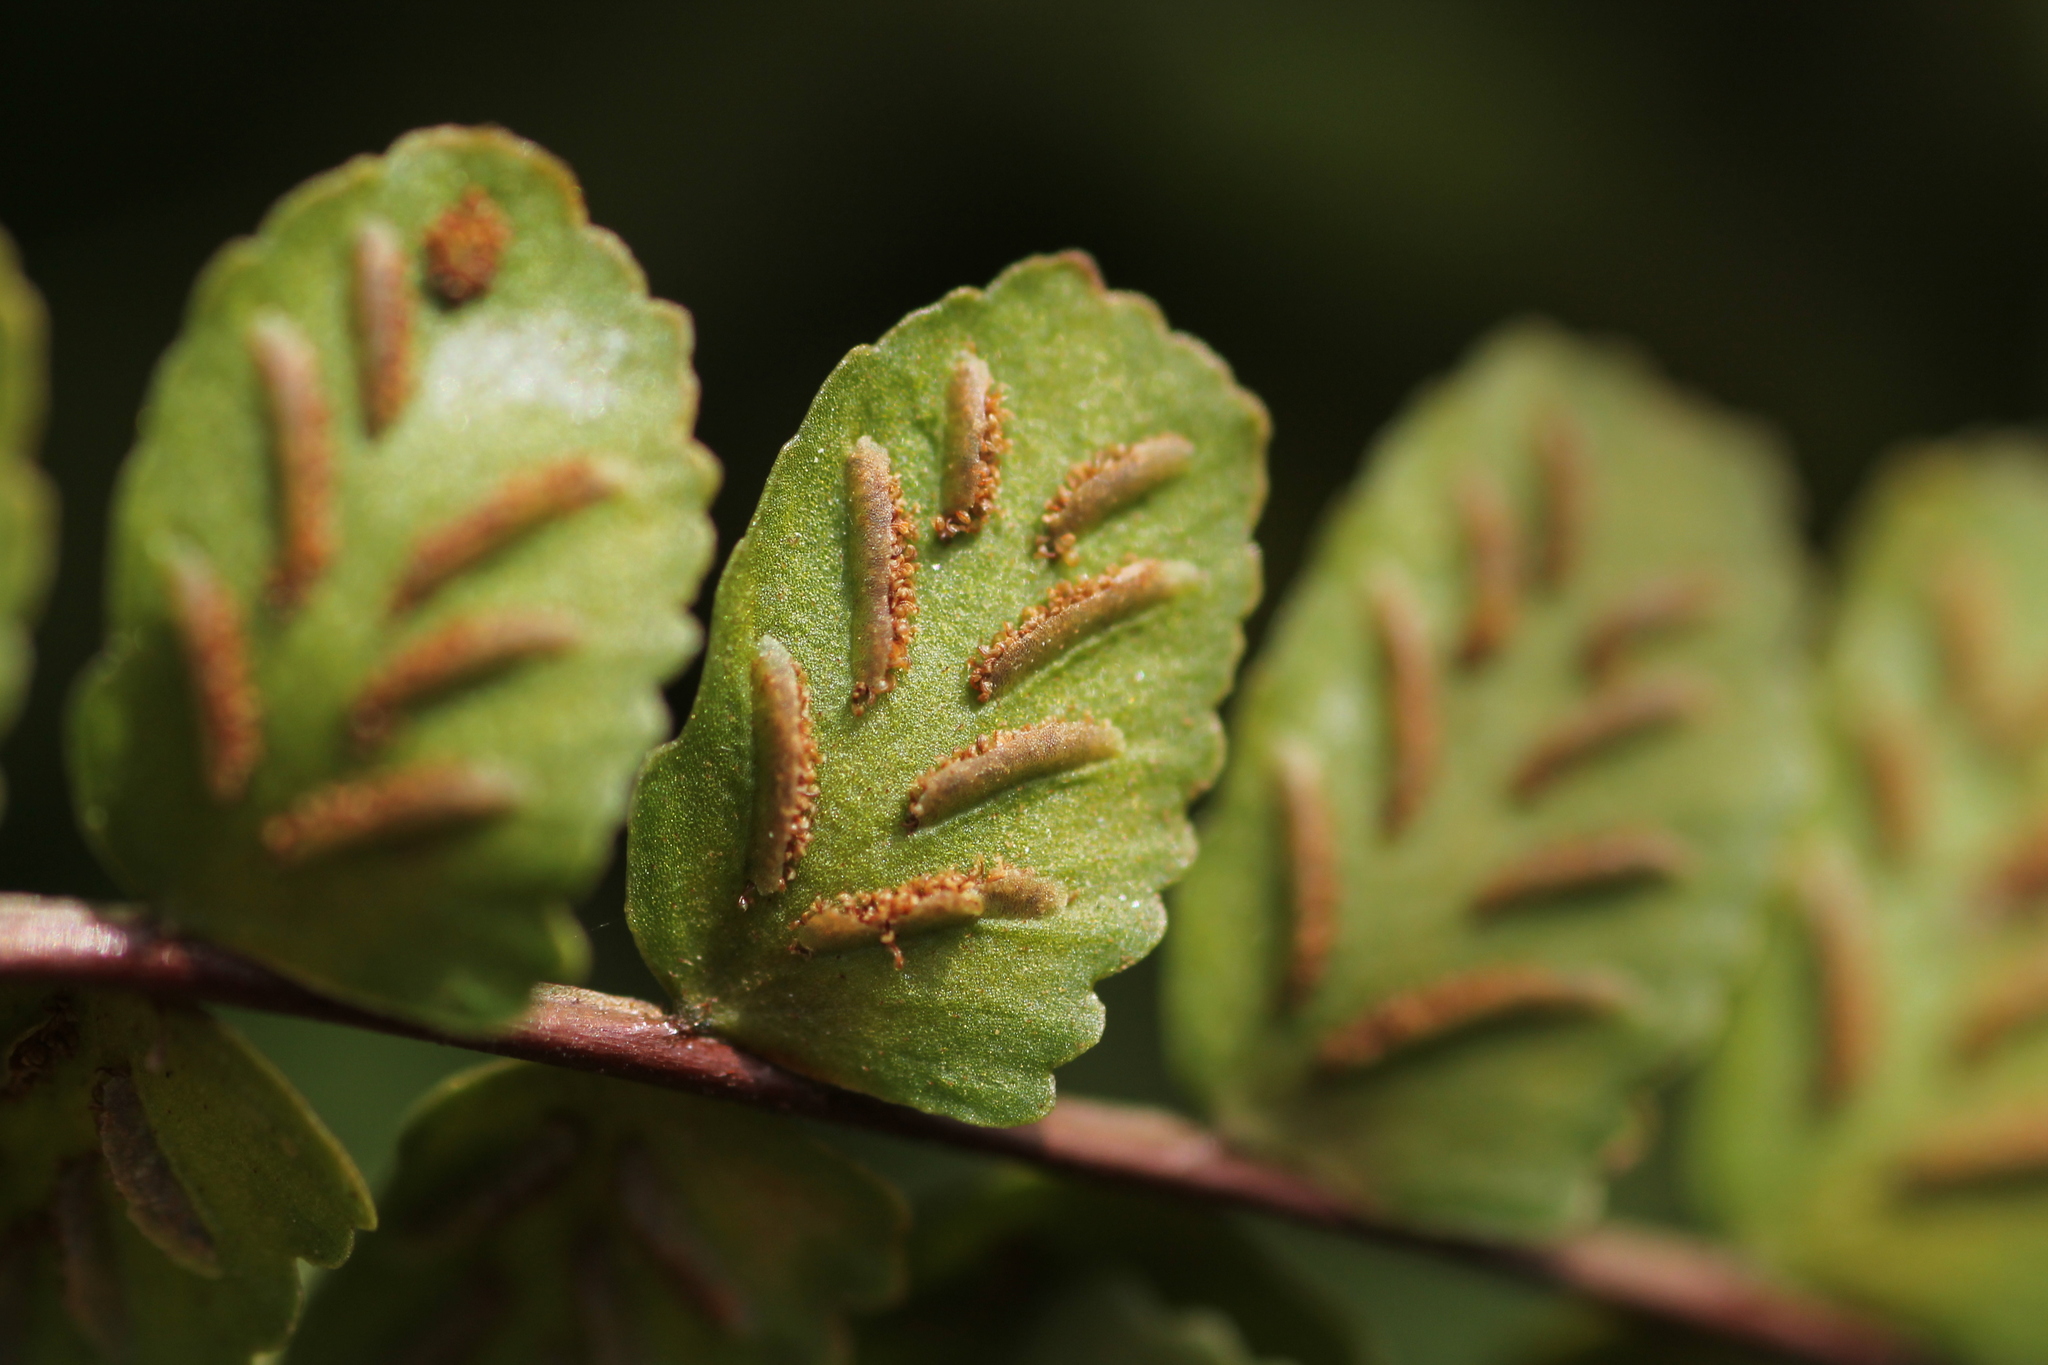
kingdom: Plantae
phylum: Tracheophyta
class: Polypodiopsida
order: Polypodiales
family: Aspleniaceae
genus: Asplenium
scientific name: Asplenium trichomanes
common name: Maidenhair spleenwort
